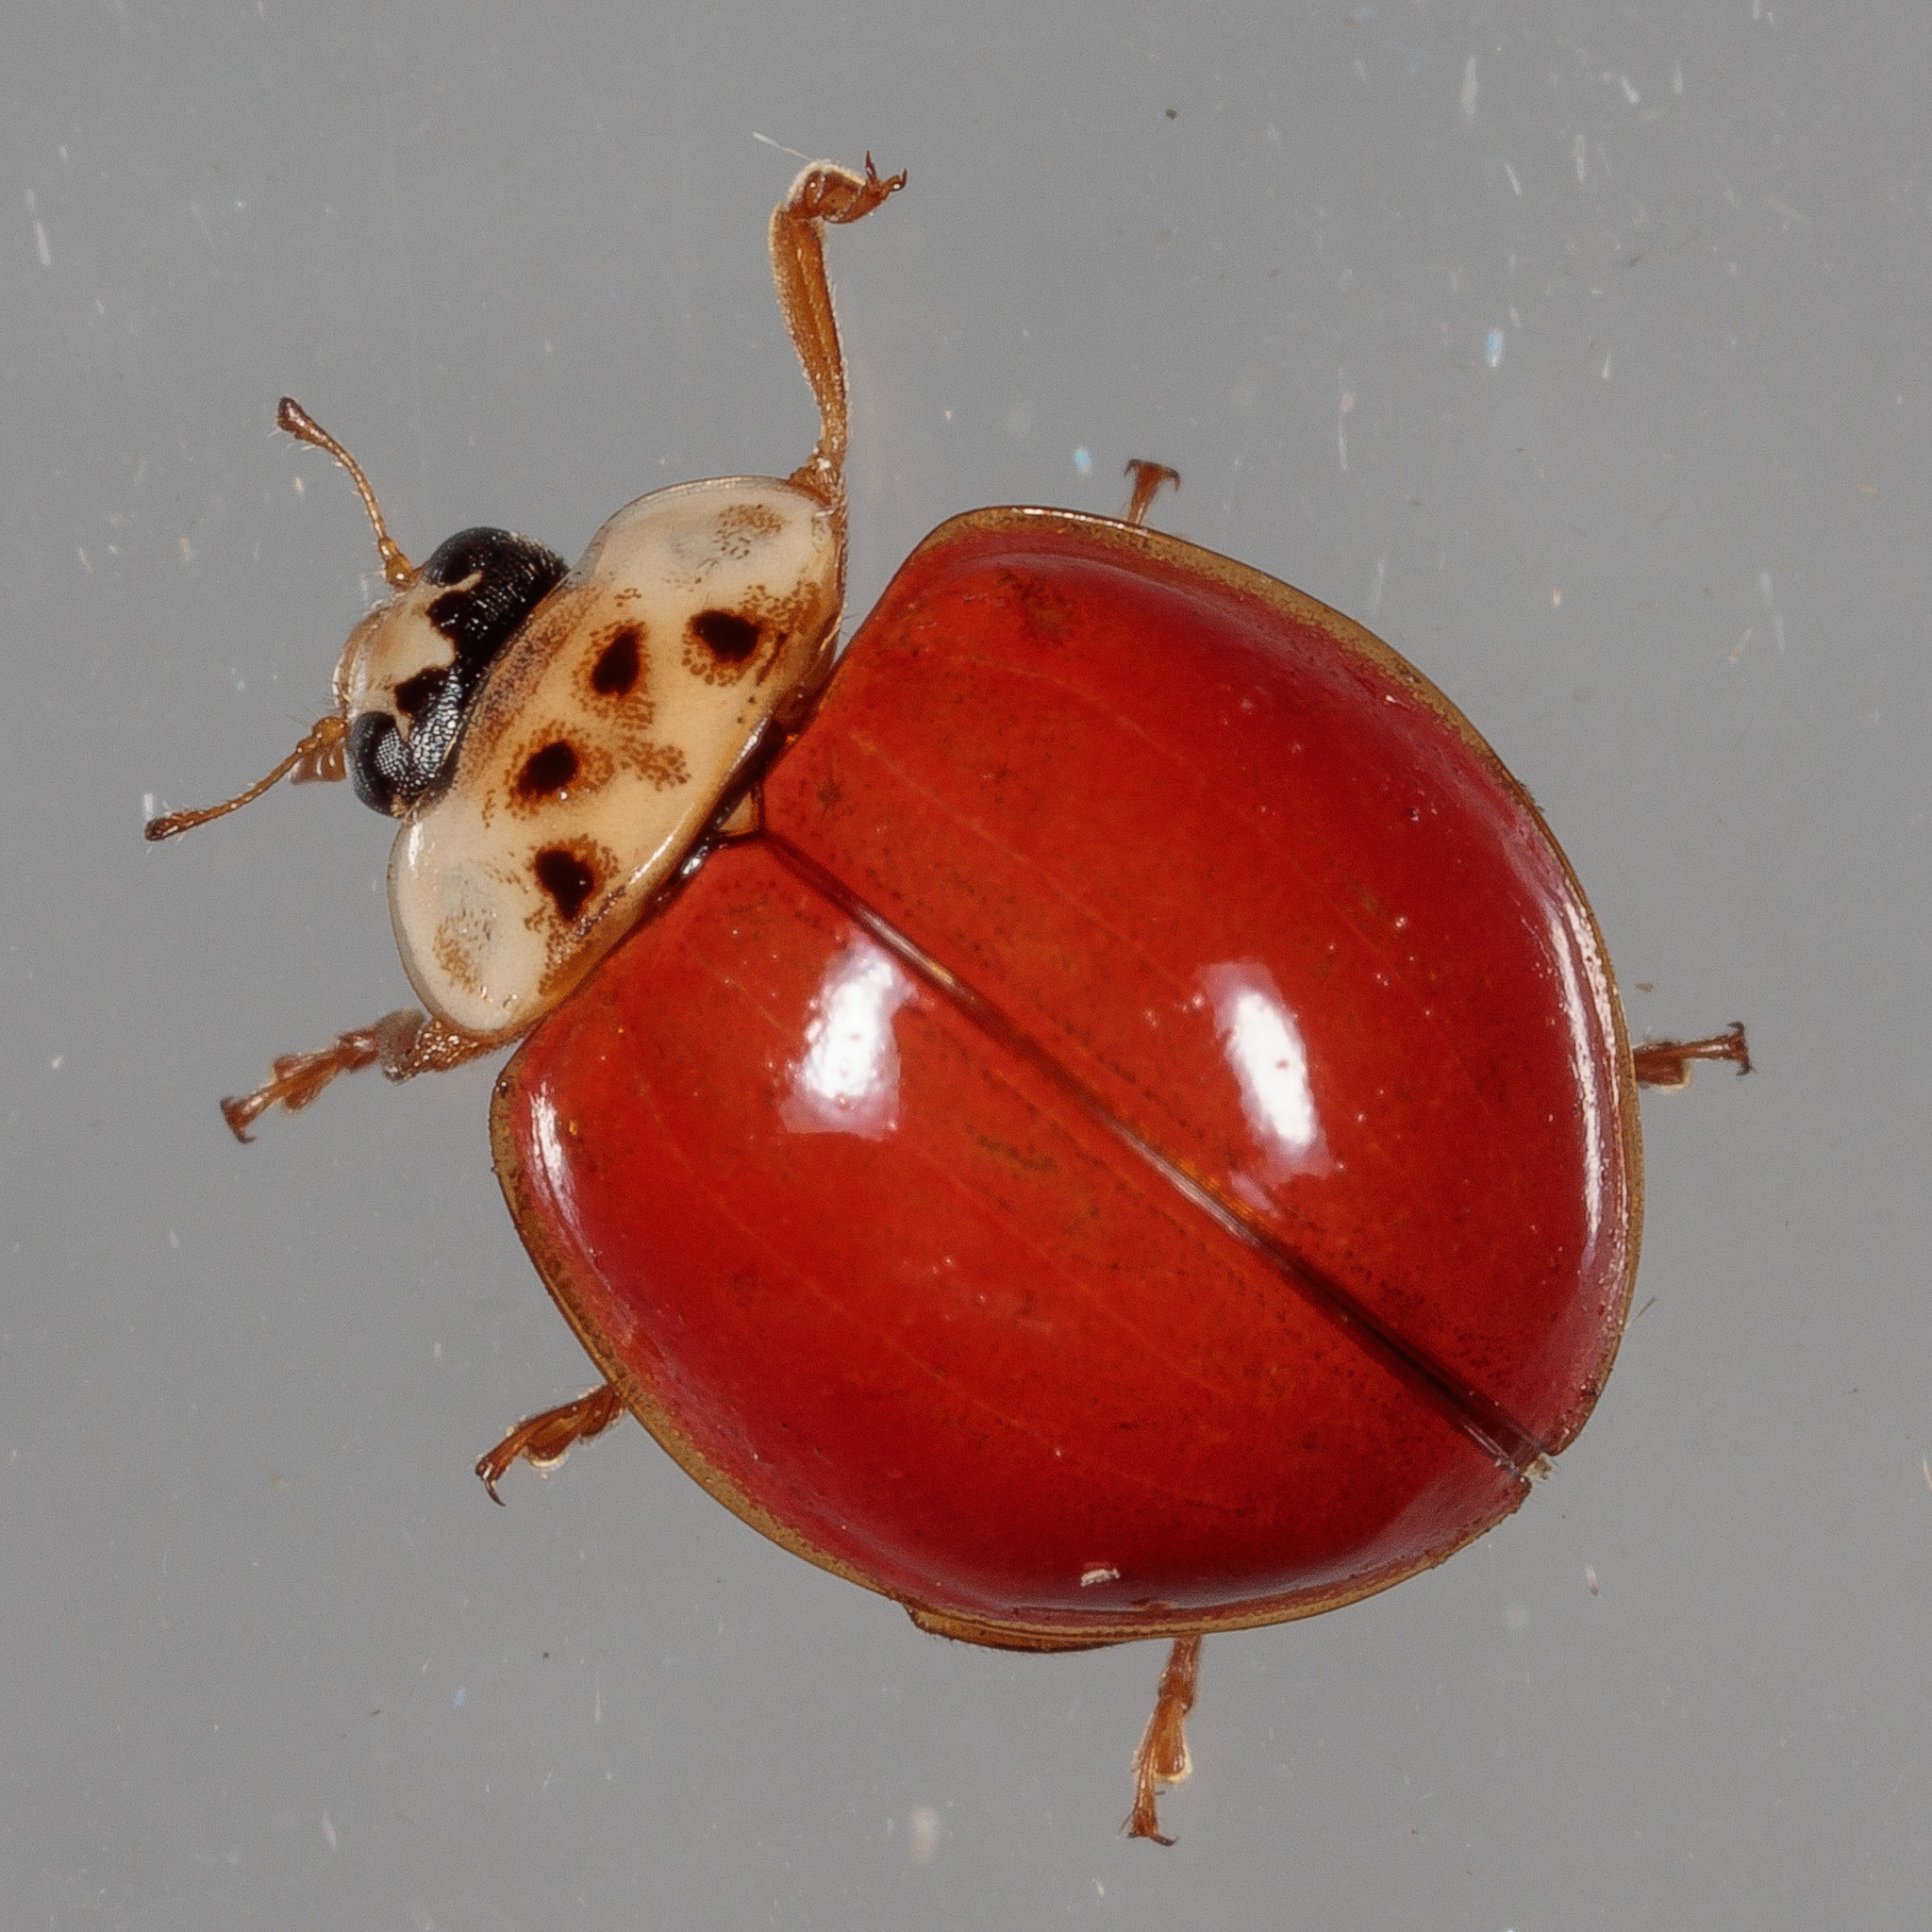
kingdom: Animalia
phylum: Arthropoda
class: Insecta
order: Coleoptera
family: Coccinellidae
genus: Harmonia
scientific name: Harmonia axyridis
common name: Harlequin ladybird
